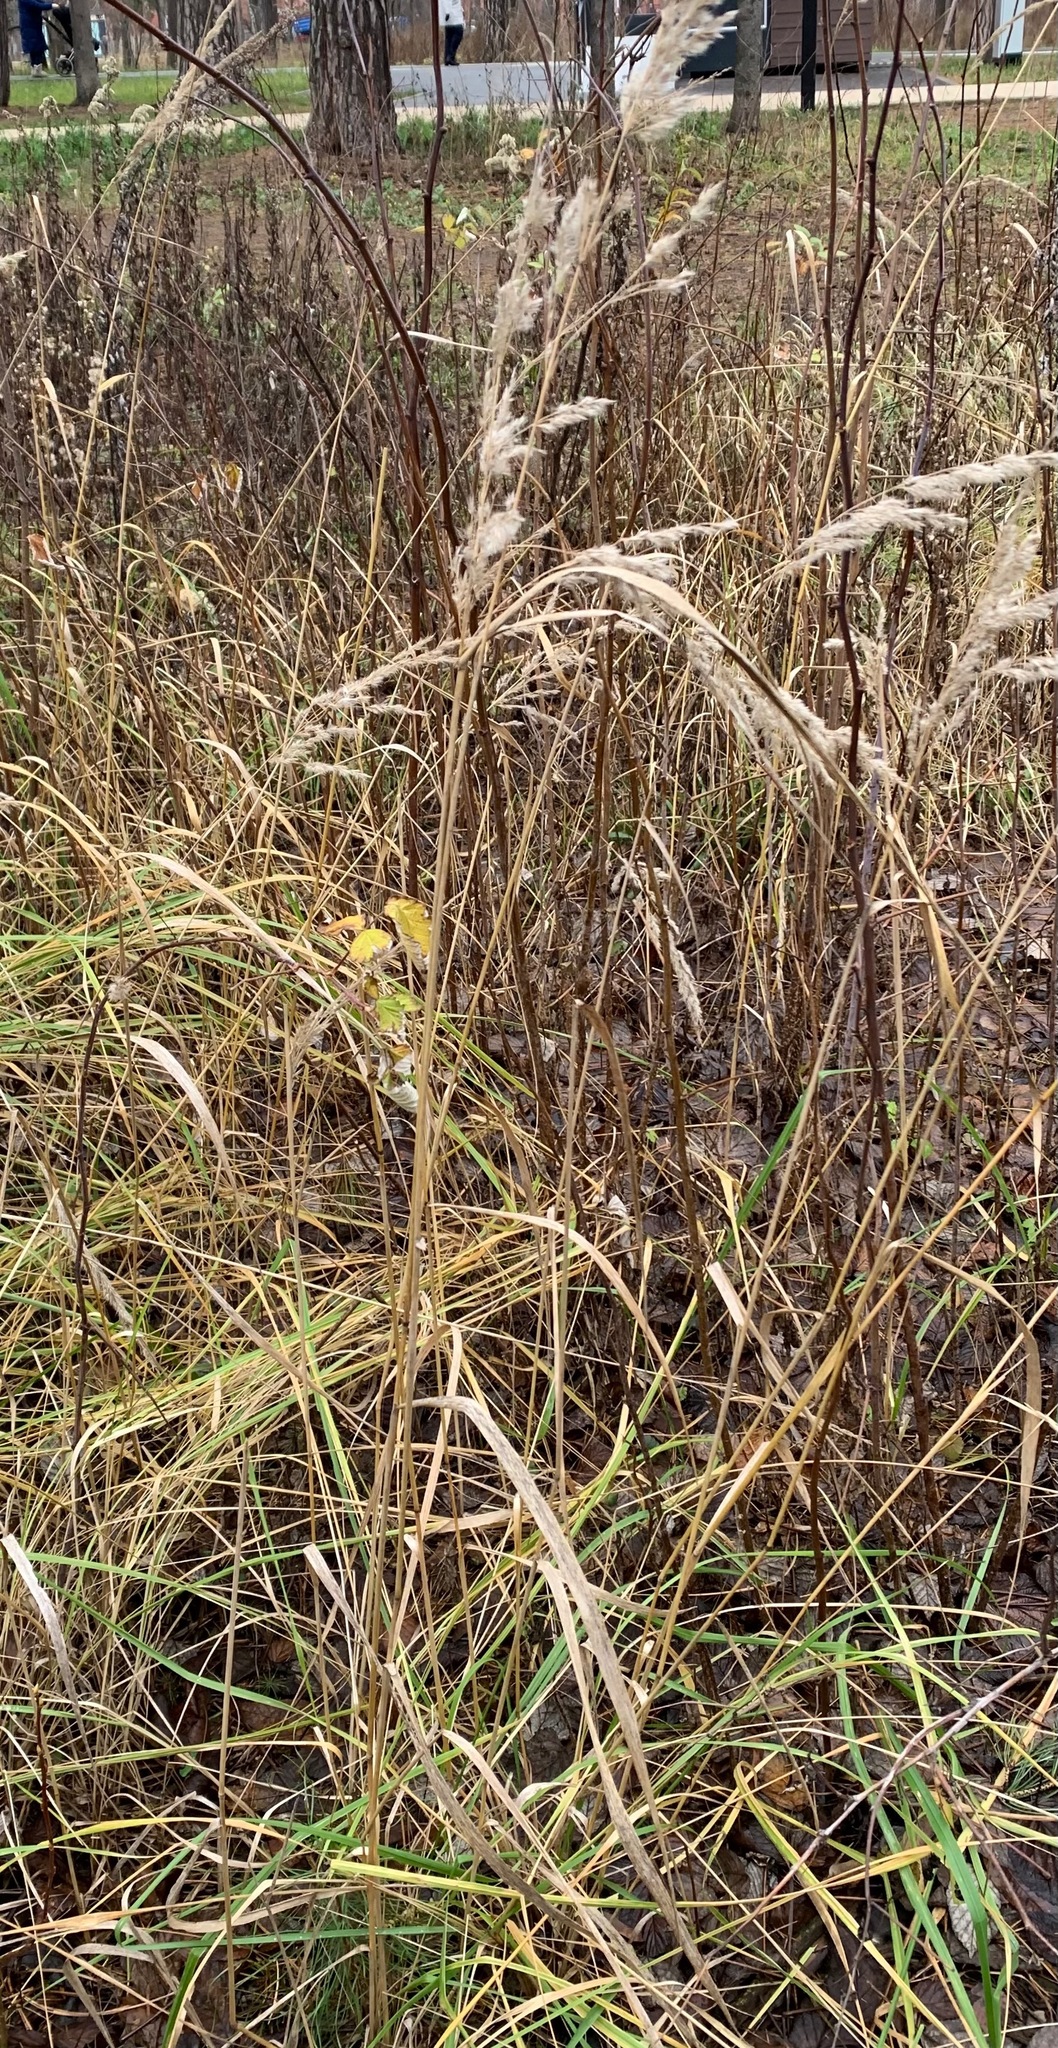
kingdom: Plantae
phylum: Tracheophyta
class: Liliopsida
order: Poales
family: Poaceae
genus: Calamagrostis
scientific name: Calamagrostis epigejos
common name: Wood small-reed
